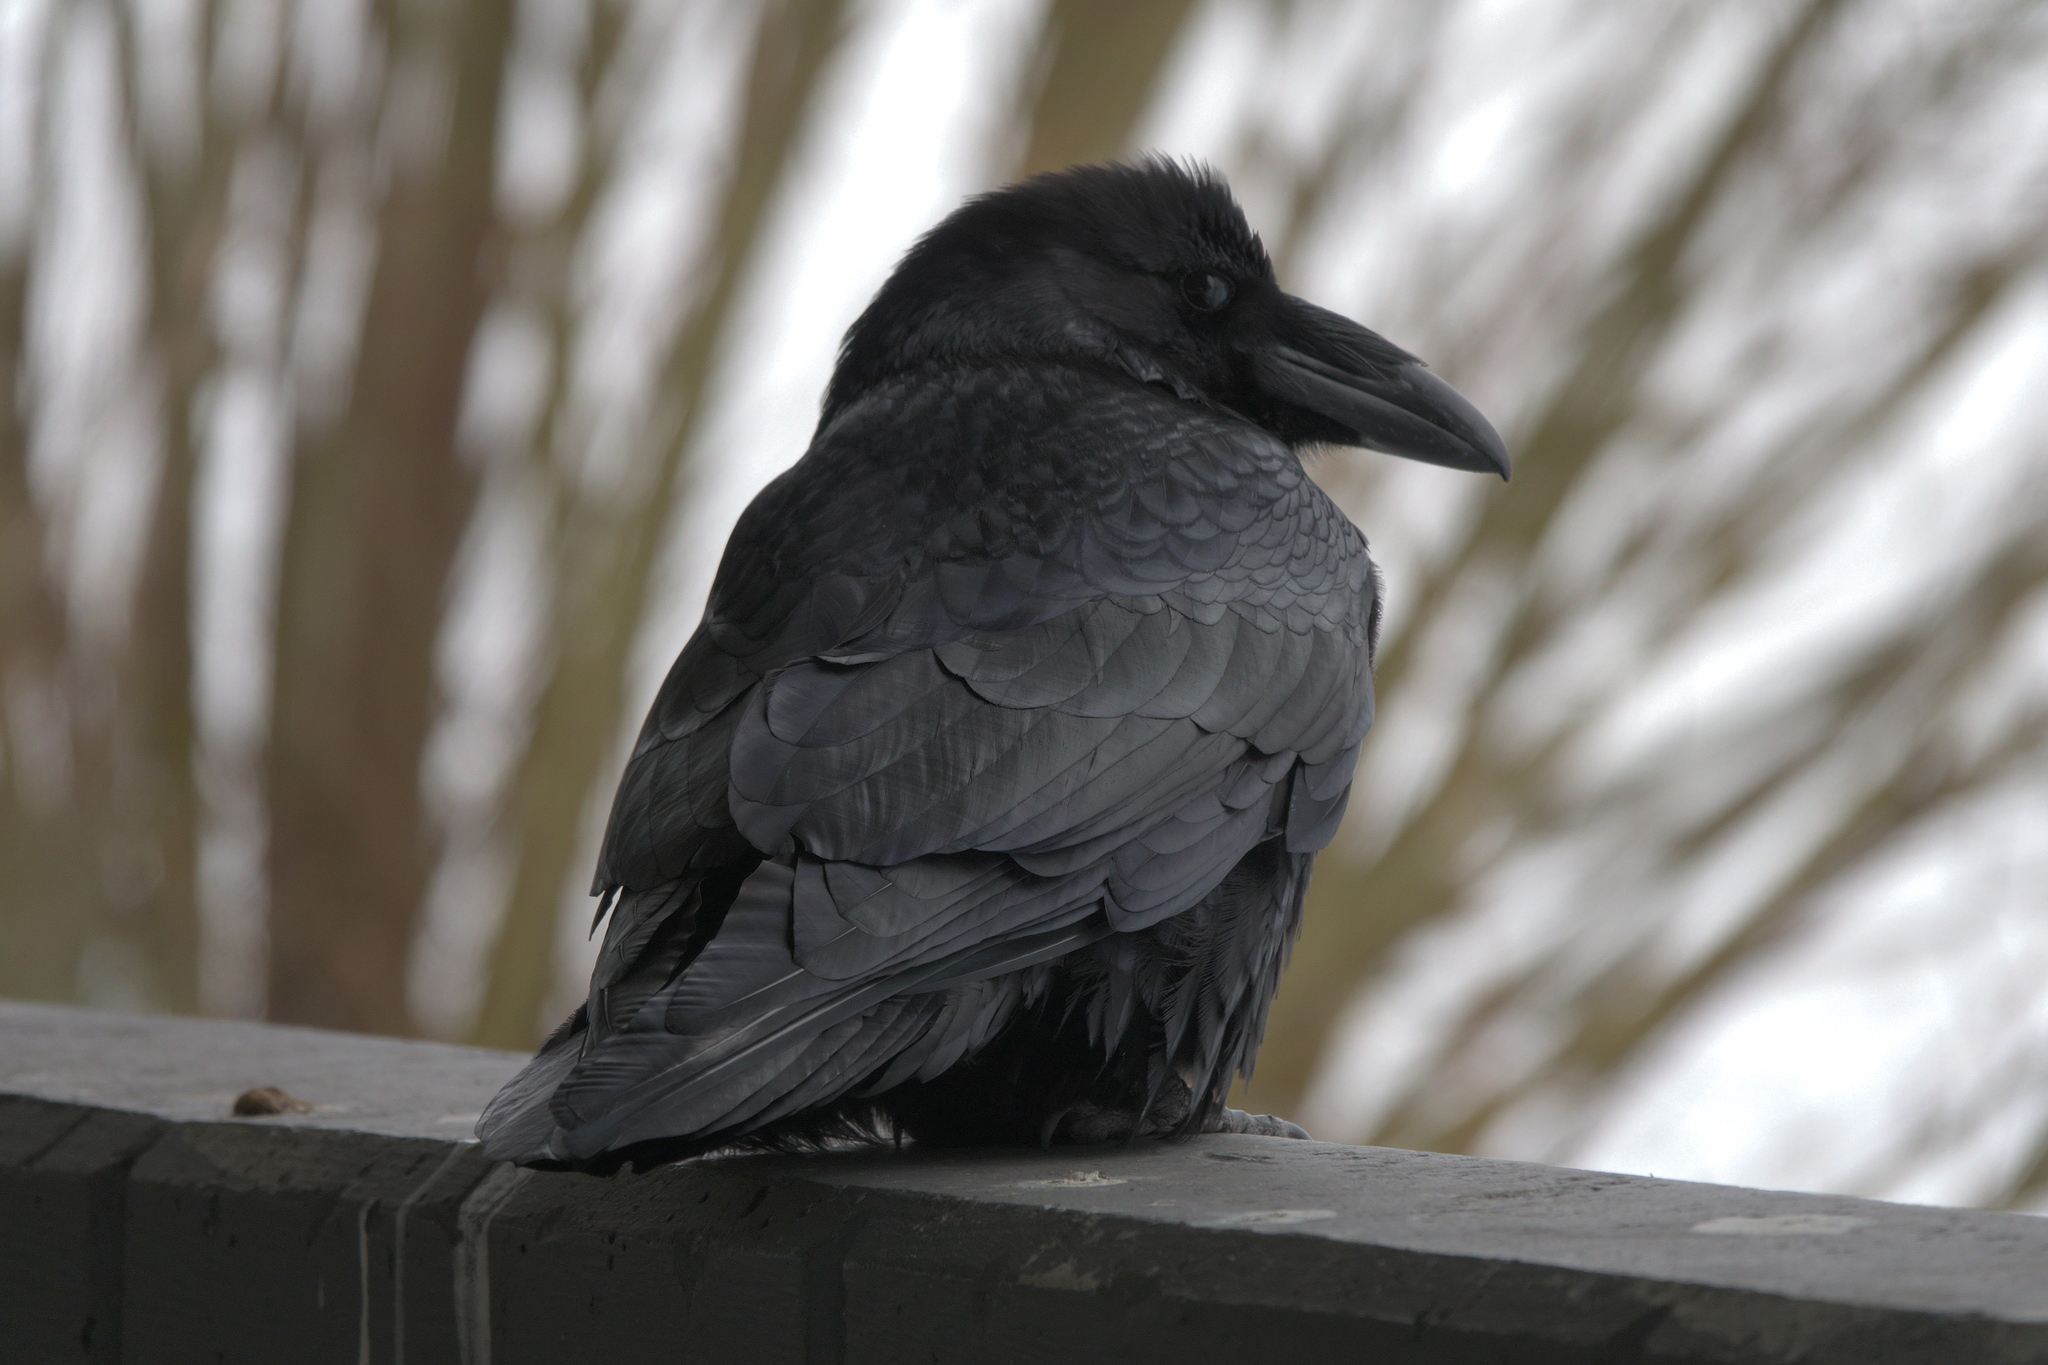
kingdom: Animalia
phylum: Chordata
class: Aves
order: Passeriformes
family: Corvidae
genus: Corvus
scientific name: Corvus corax
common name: Common raven
